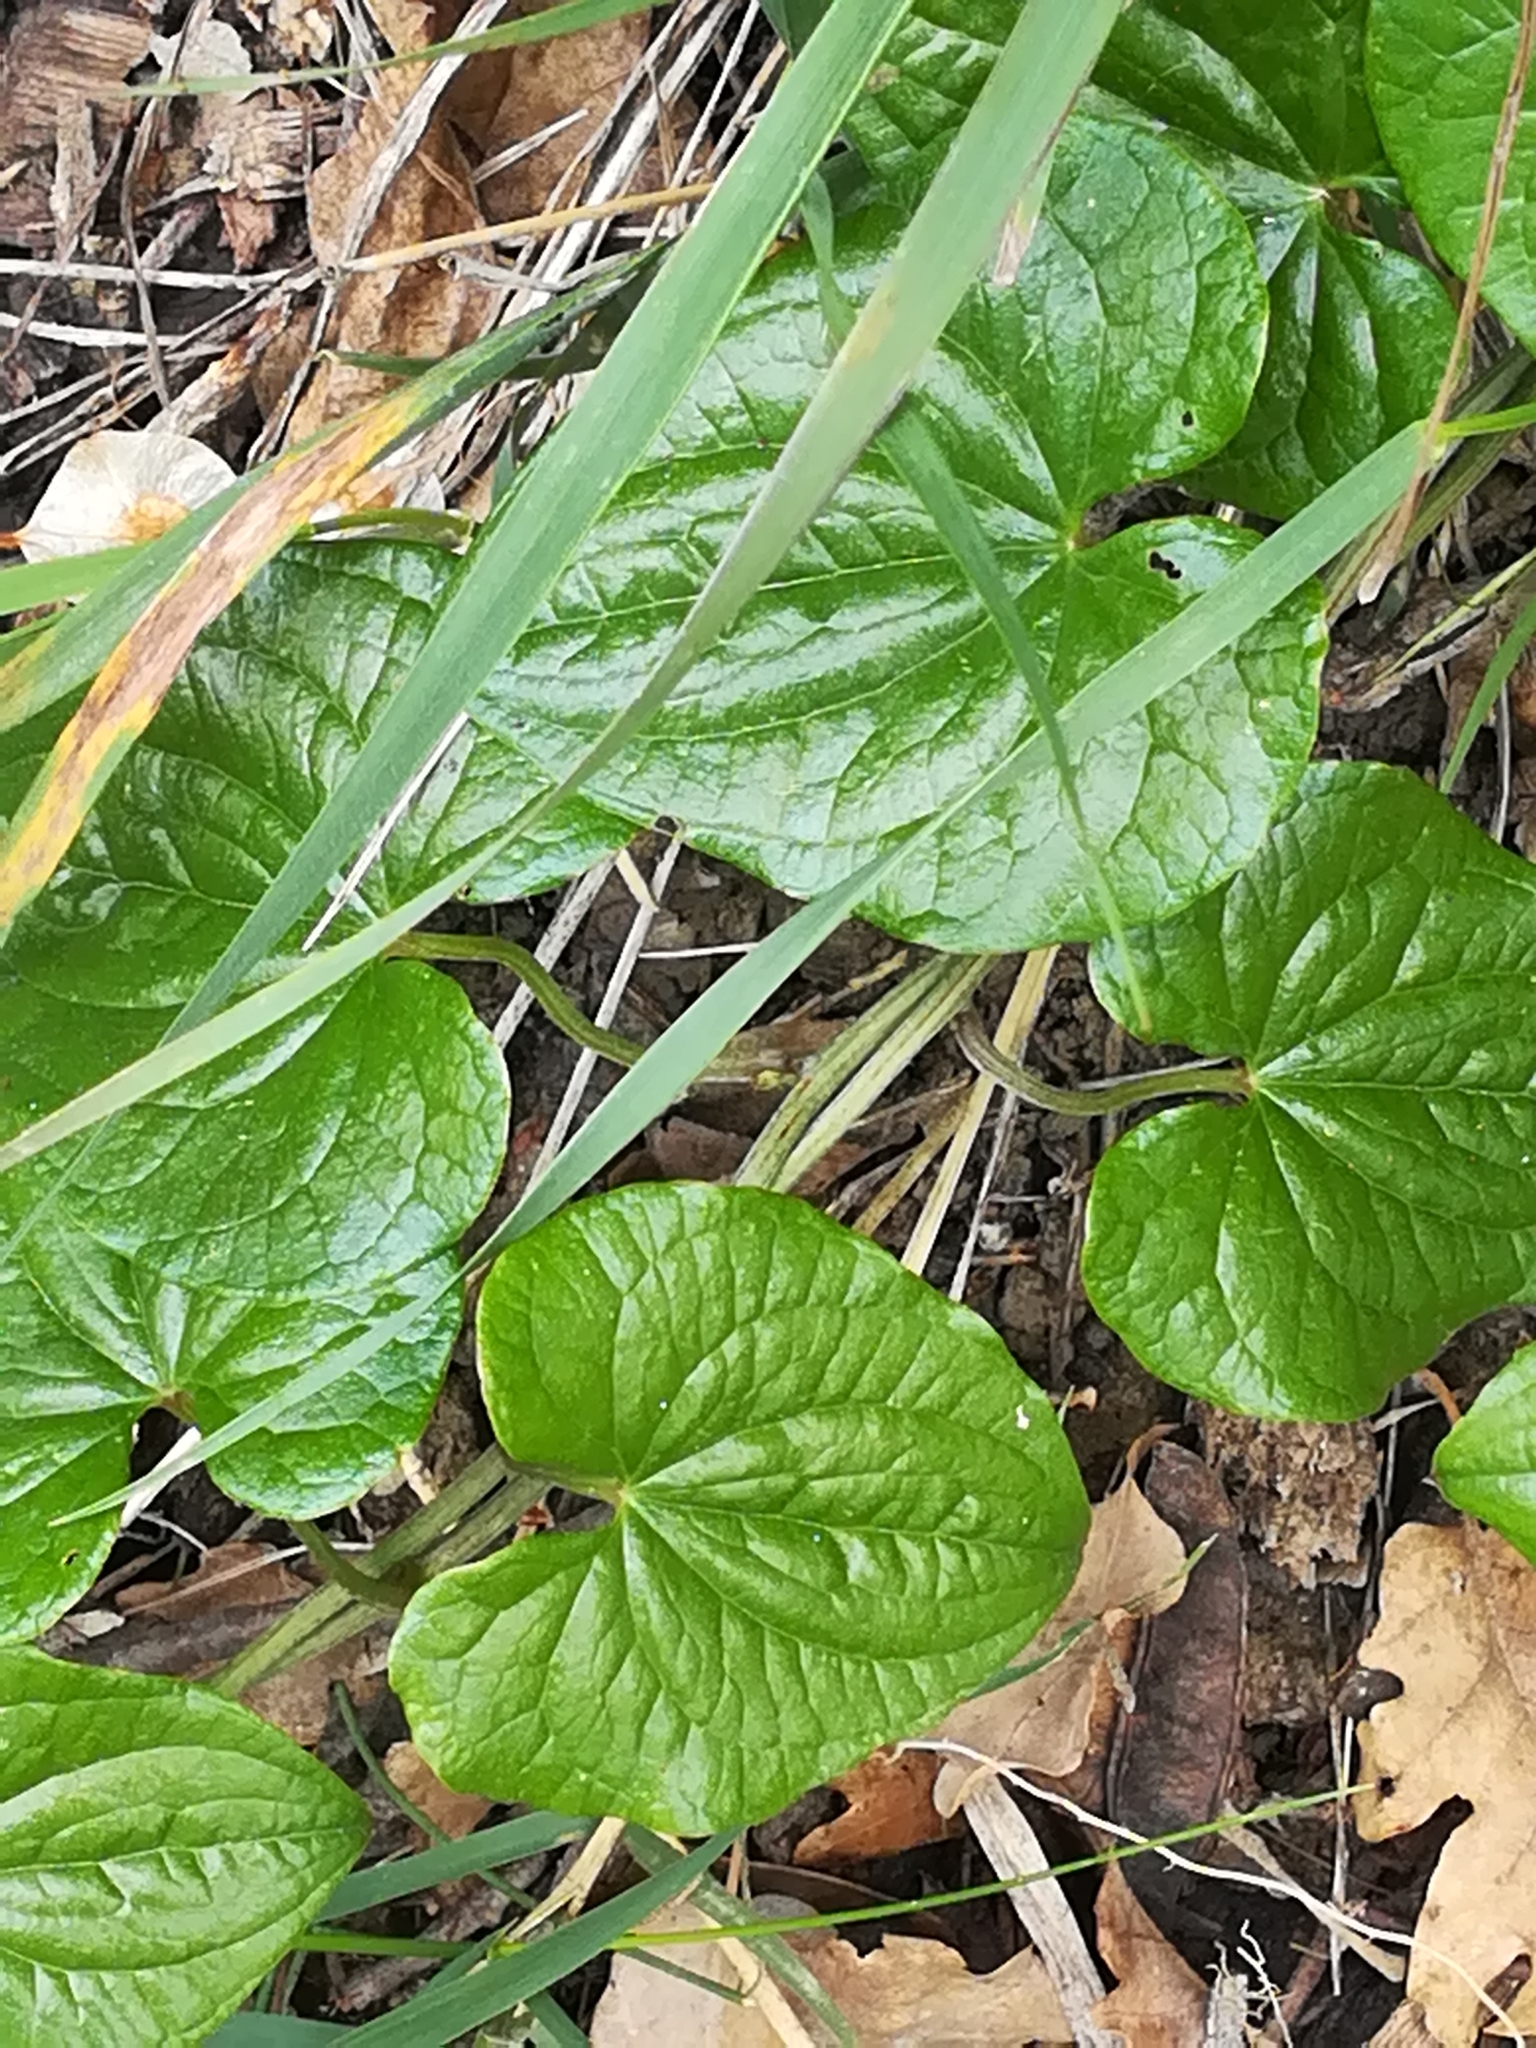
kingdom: Plantae
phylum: Tracheophyta
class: Liliopsida
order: Dioscoreales
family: Dioscoreaceae
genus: Dioscorea
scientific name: Dioscorea communis
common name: Black-bindweed
